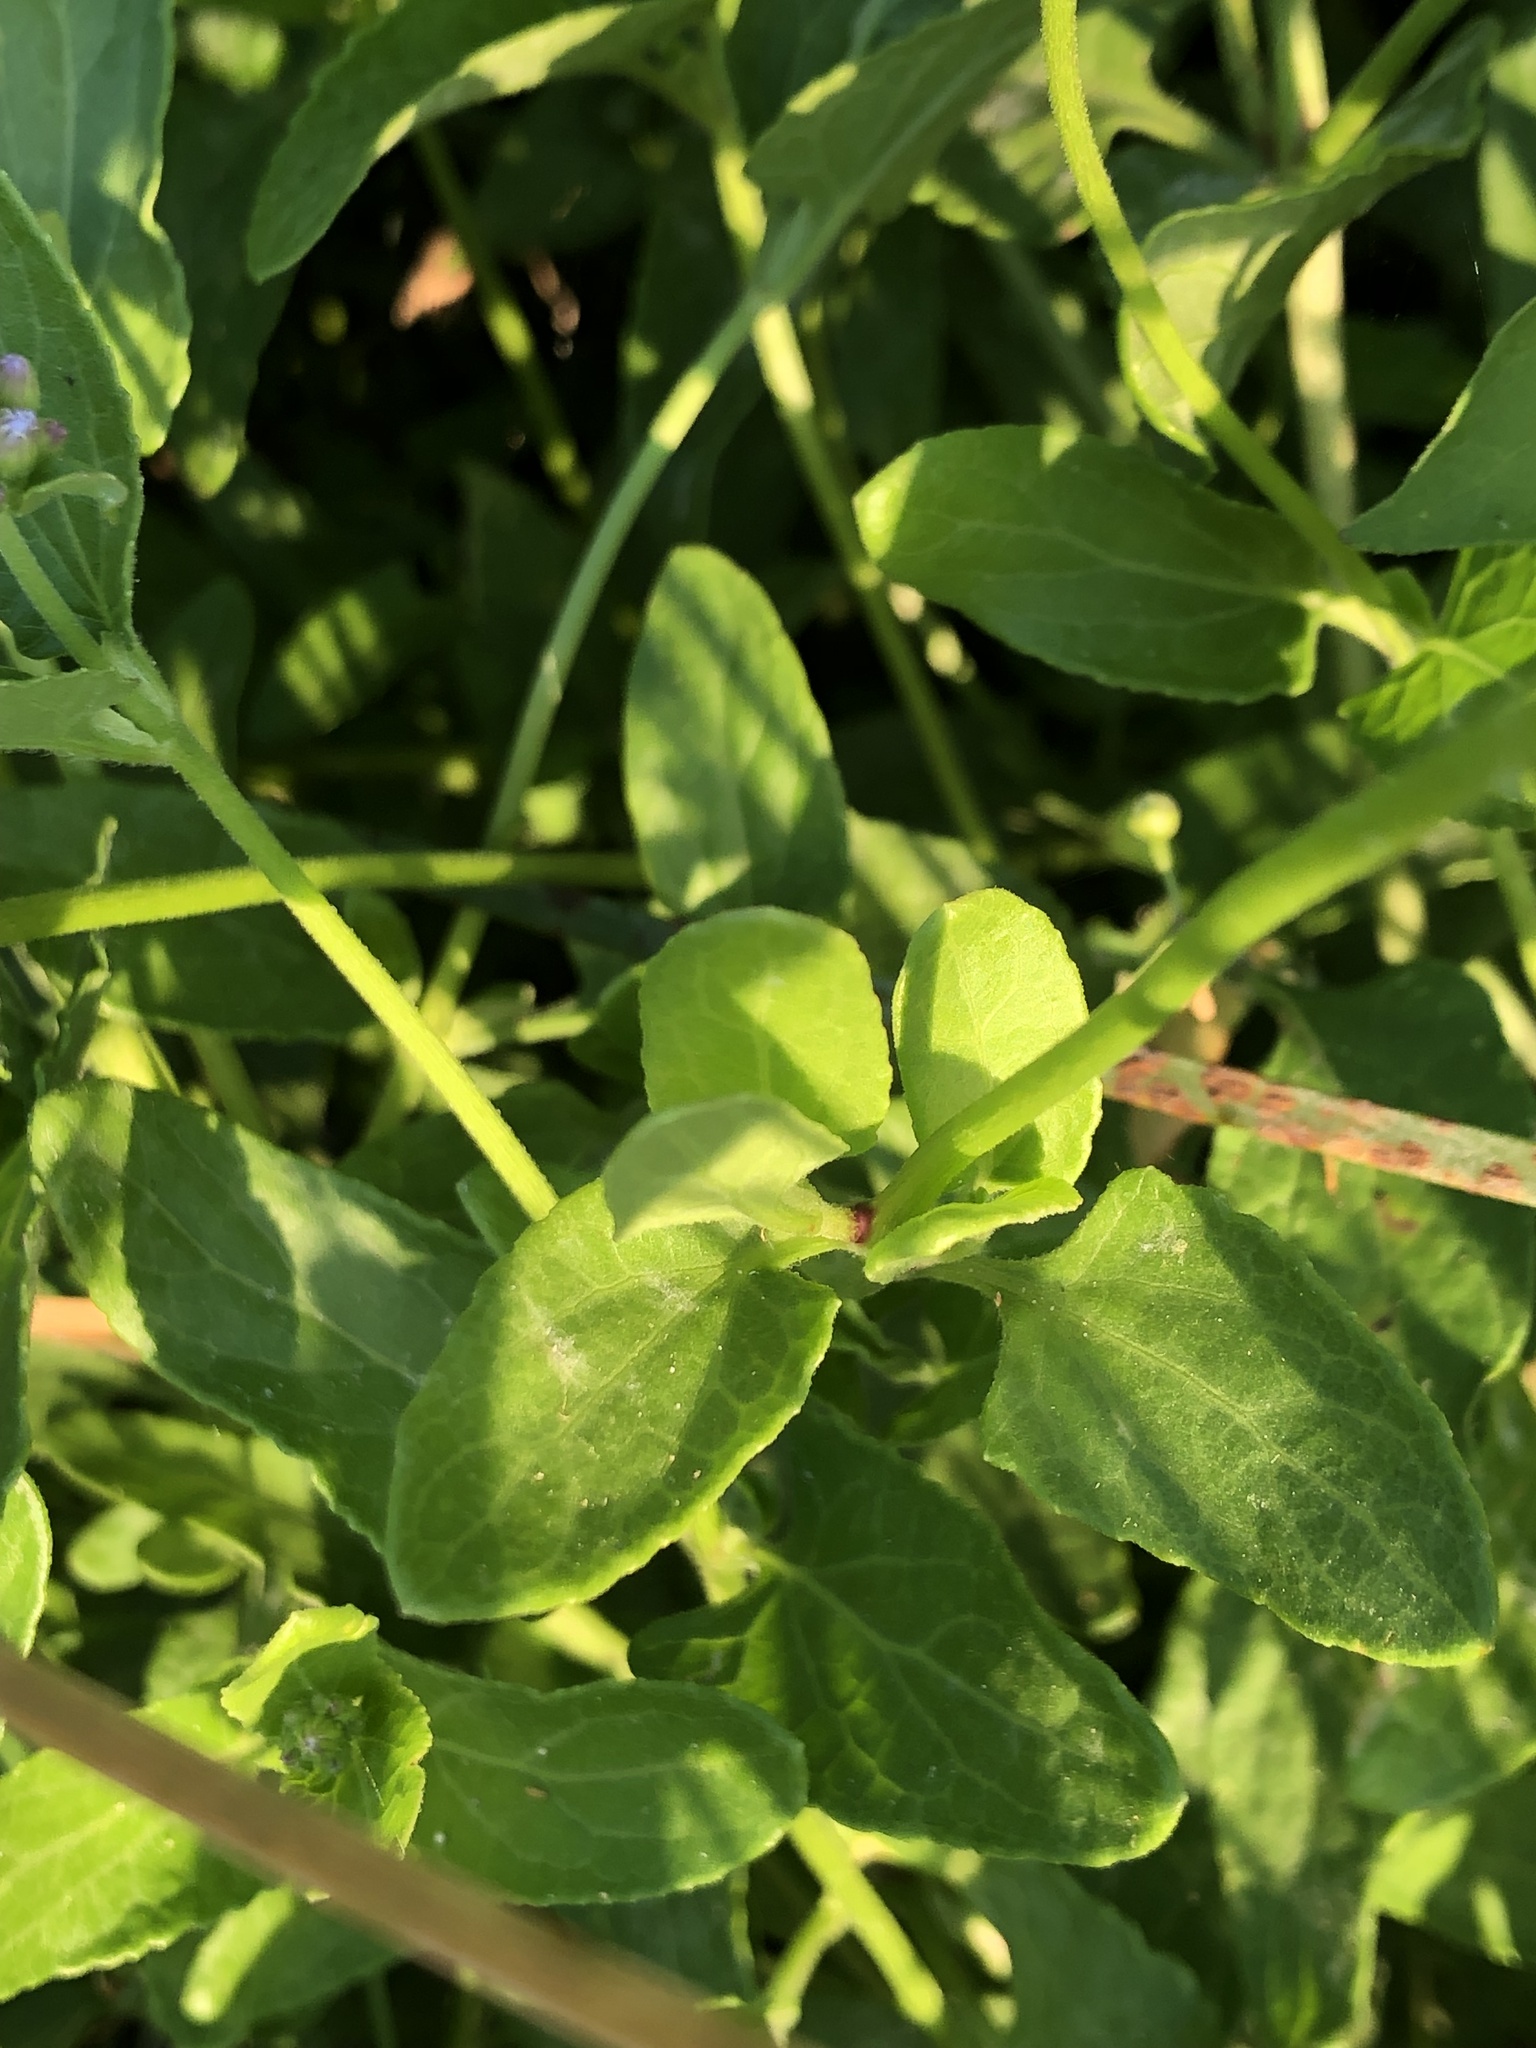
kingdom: Plantae
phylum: Tracheophyta
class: Magnoliopsida
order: Asterales
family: Asteraceae
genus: Conoclinium
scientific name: Conoclinium betonicifolium
